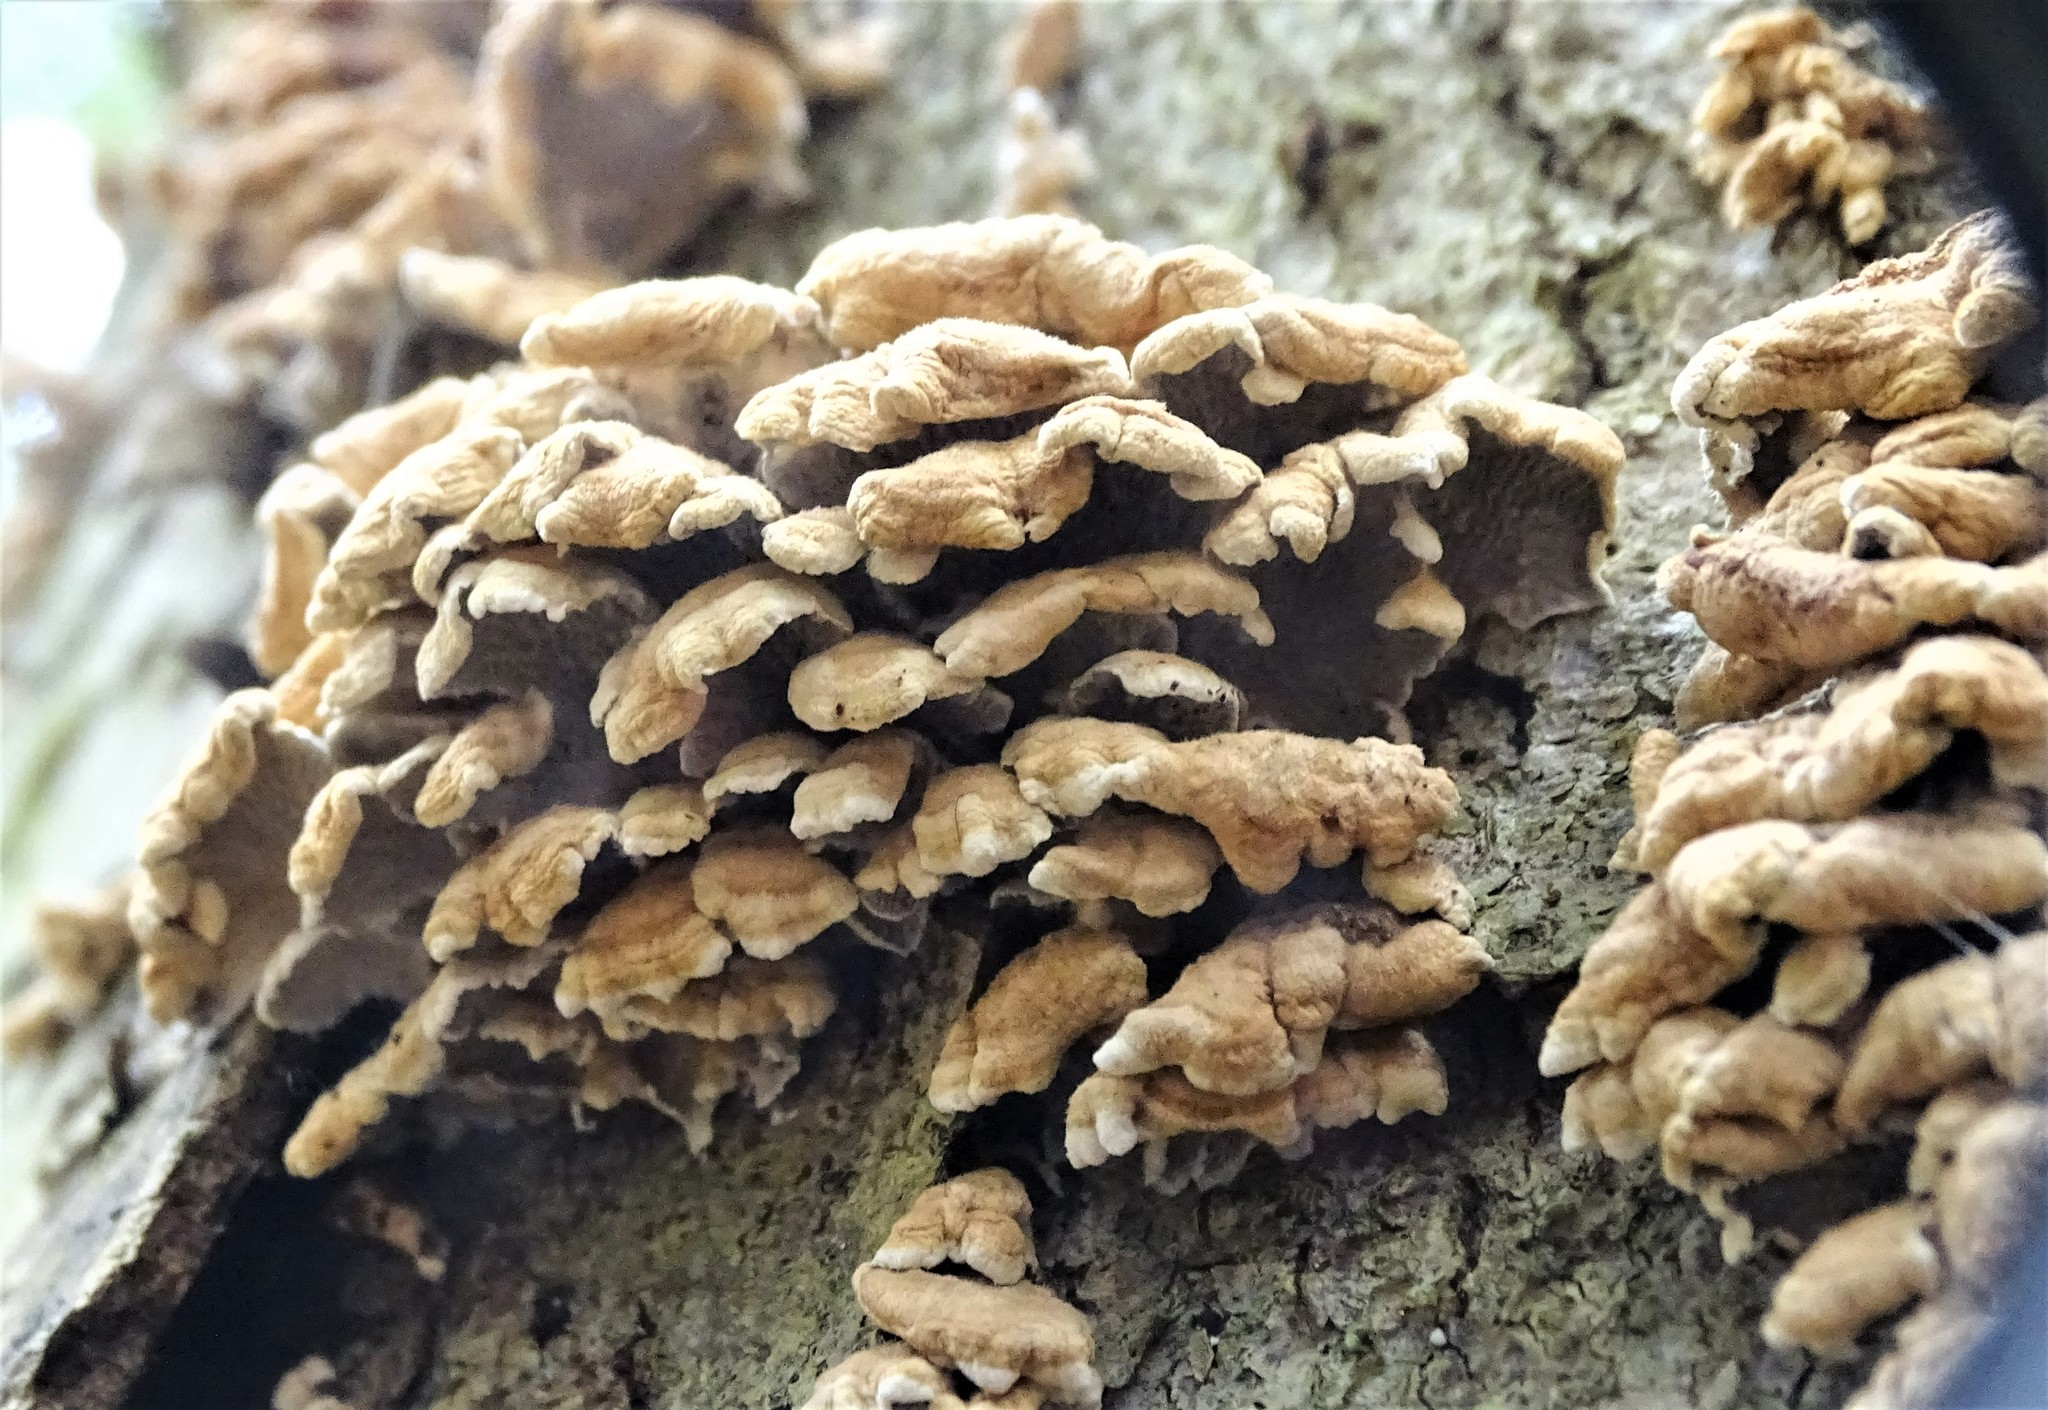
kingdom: Fungi
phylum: Basidiomycota
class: Agaricomycetes
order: Amylocorticiales
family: Amylocorticiaceae
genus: Plicaturopsis
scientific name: Plicaturopsis crispa
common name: Crimped gill
